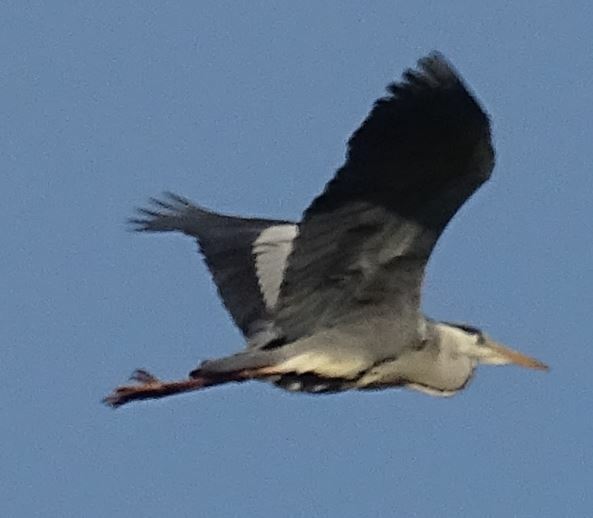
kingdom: Animalia
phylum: Chordata
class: Aves
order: Pelecaniformes
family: Ardeidae
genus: Ardea
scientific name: Ardea cinerea
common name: Grey heron
